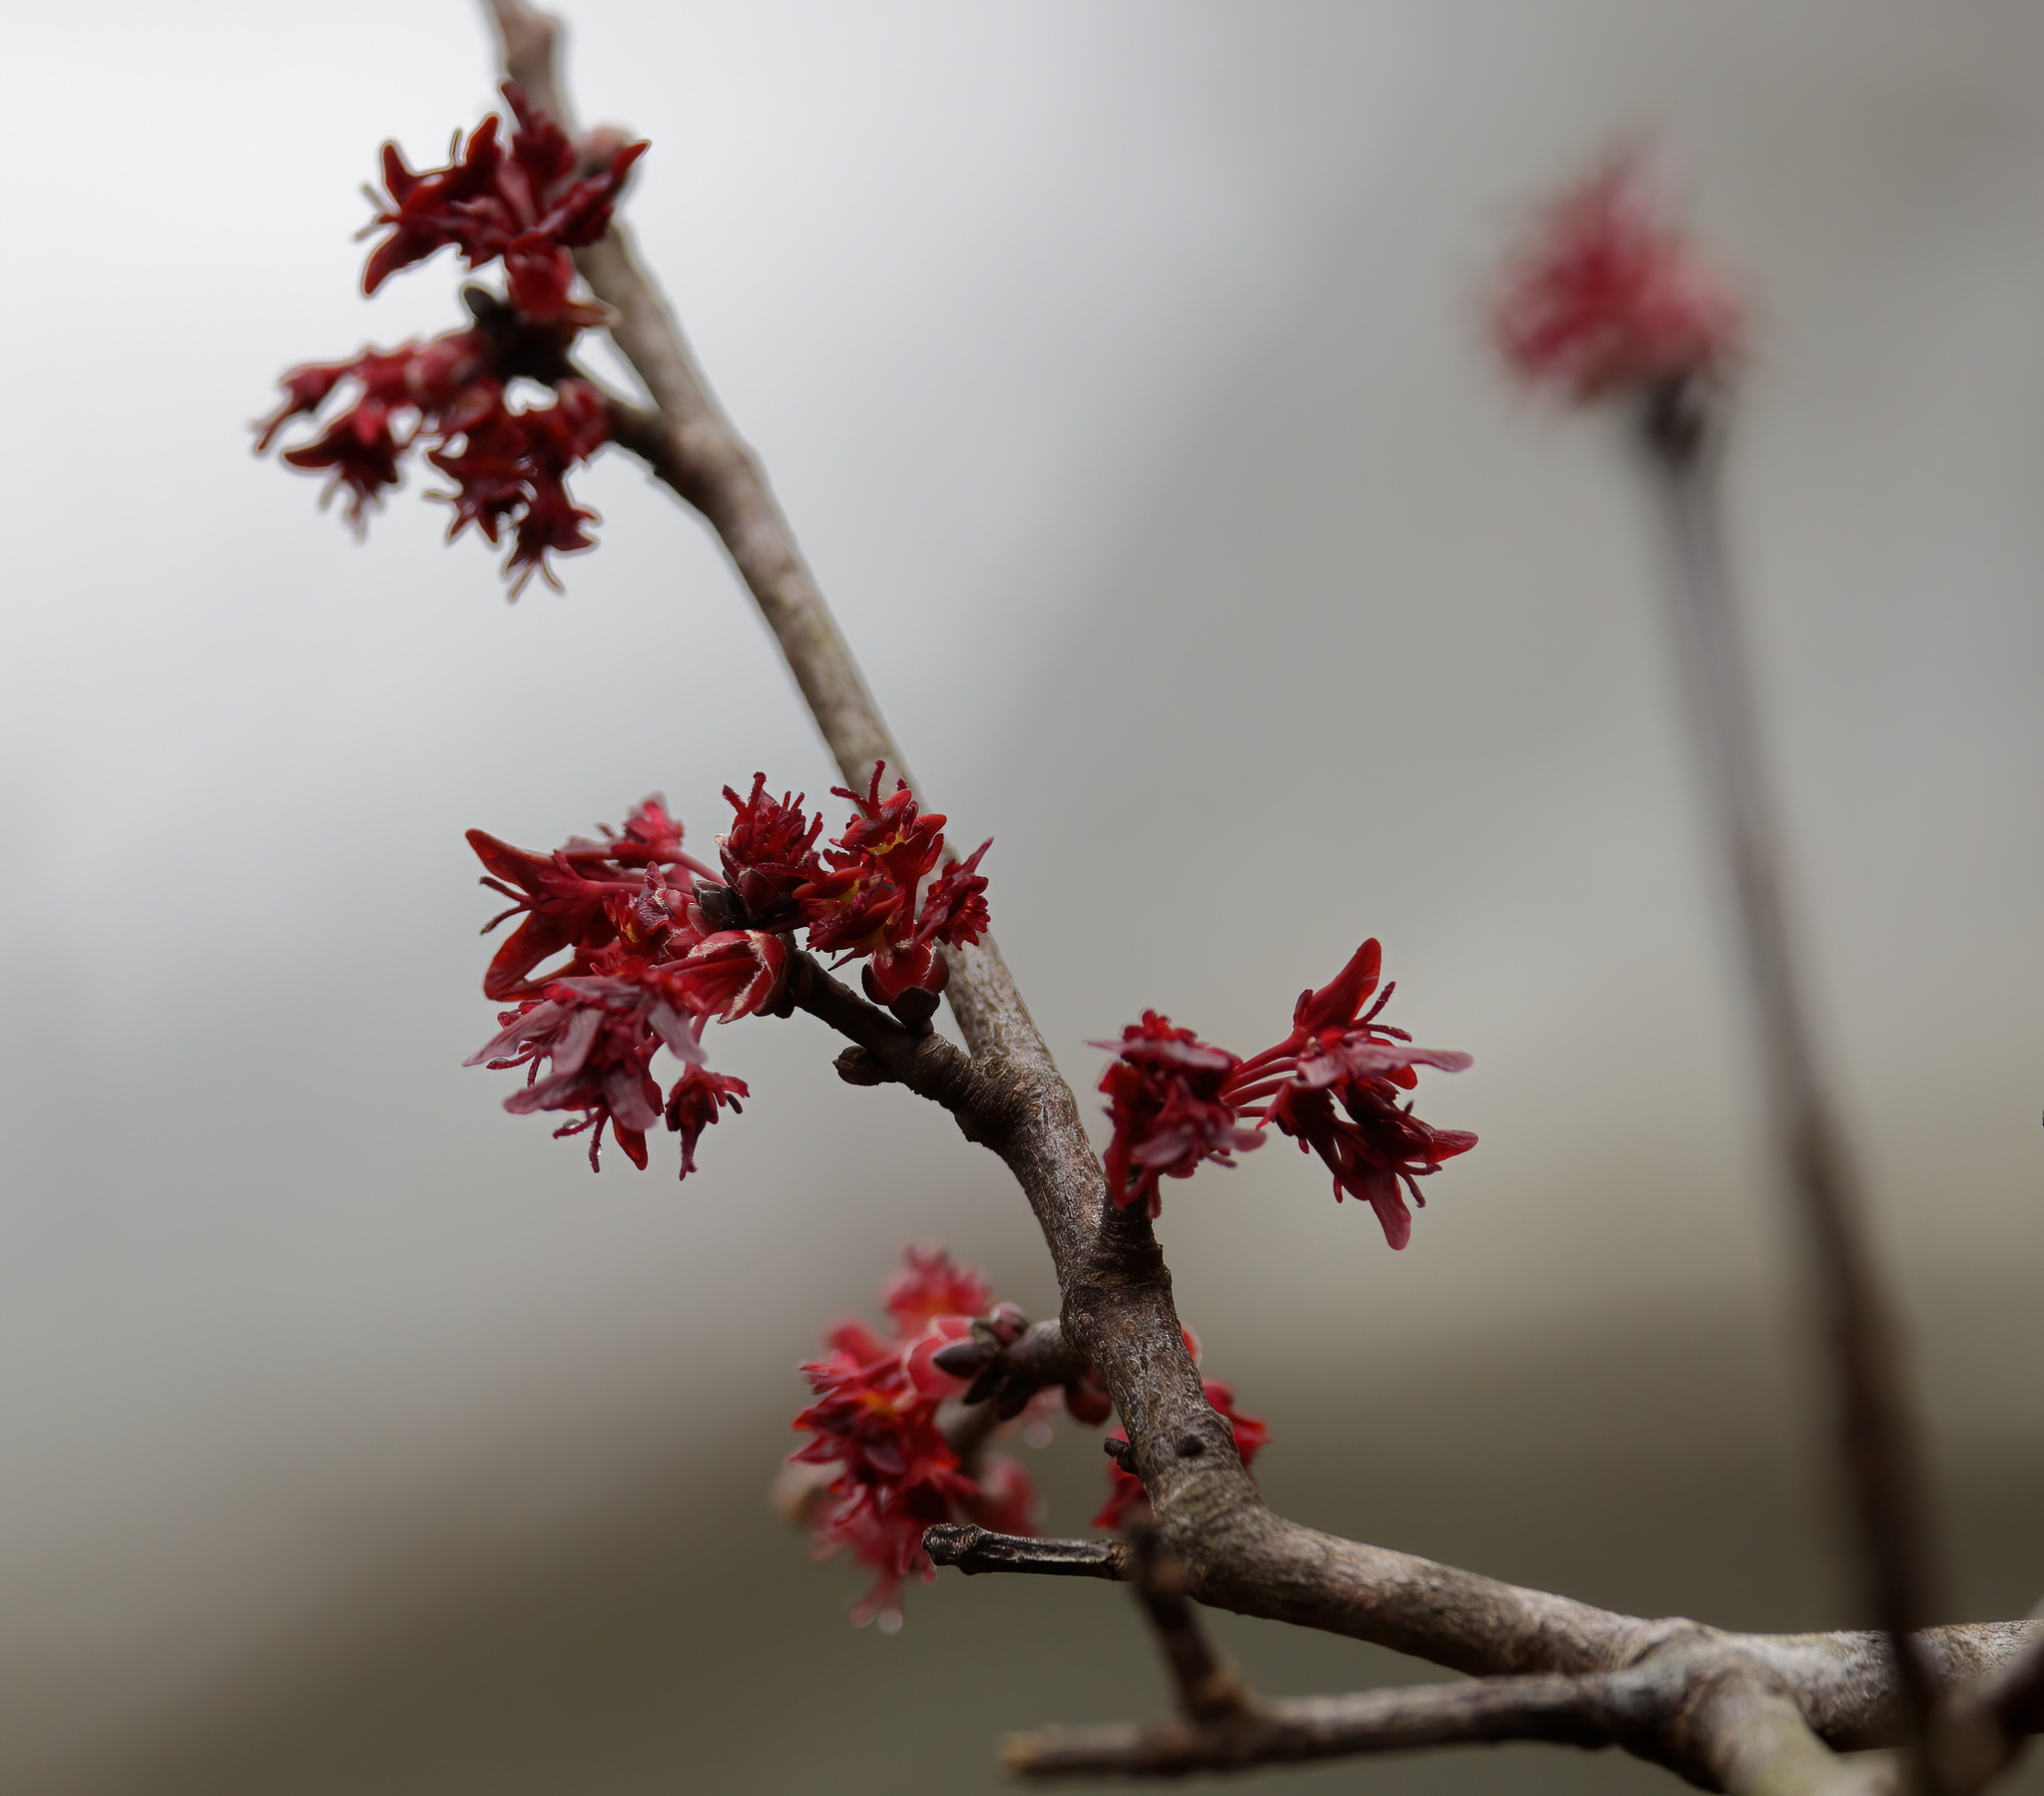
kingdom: Plantae
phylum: Tracheophyta
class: Magnoliopsida
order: Sapindales
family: Sapindaceae
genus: Acer
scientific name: Acer rubrum
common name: Red maple
